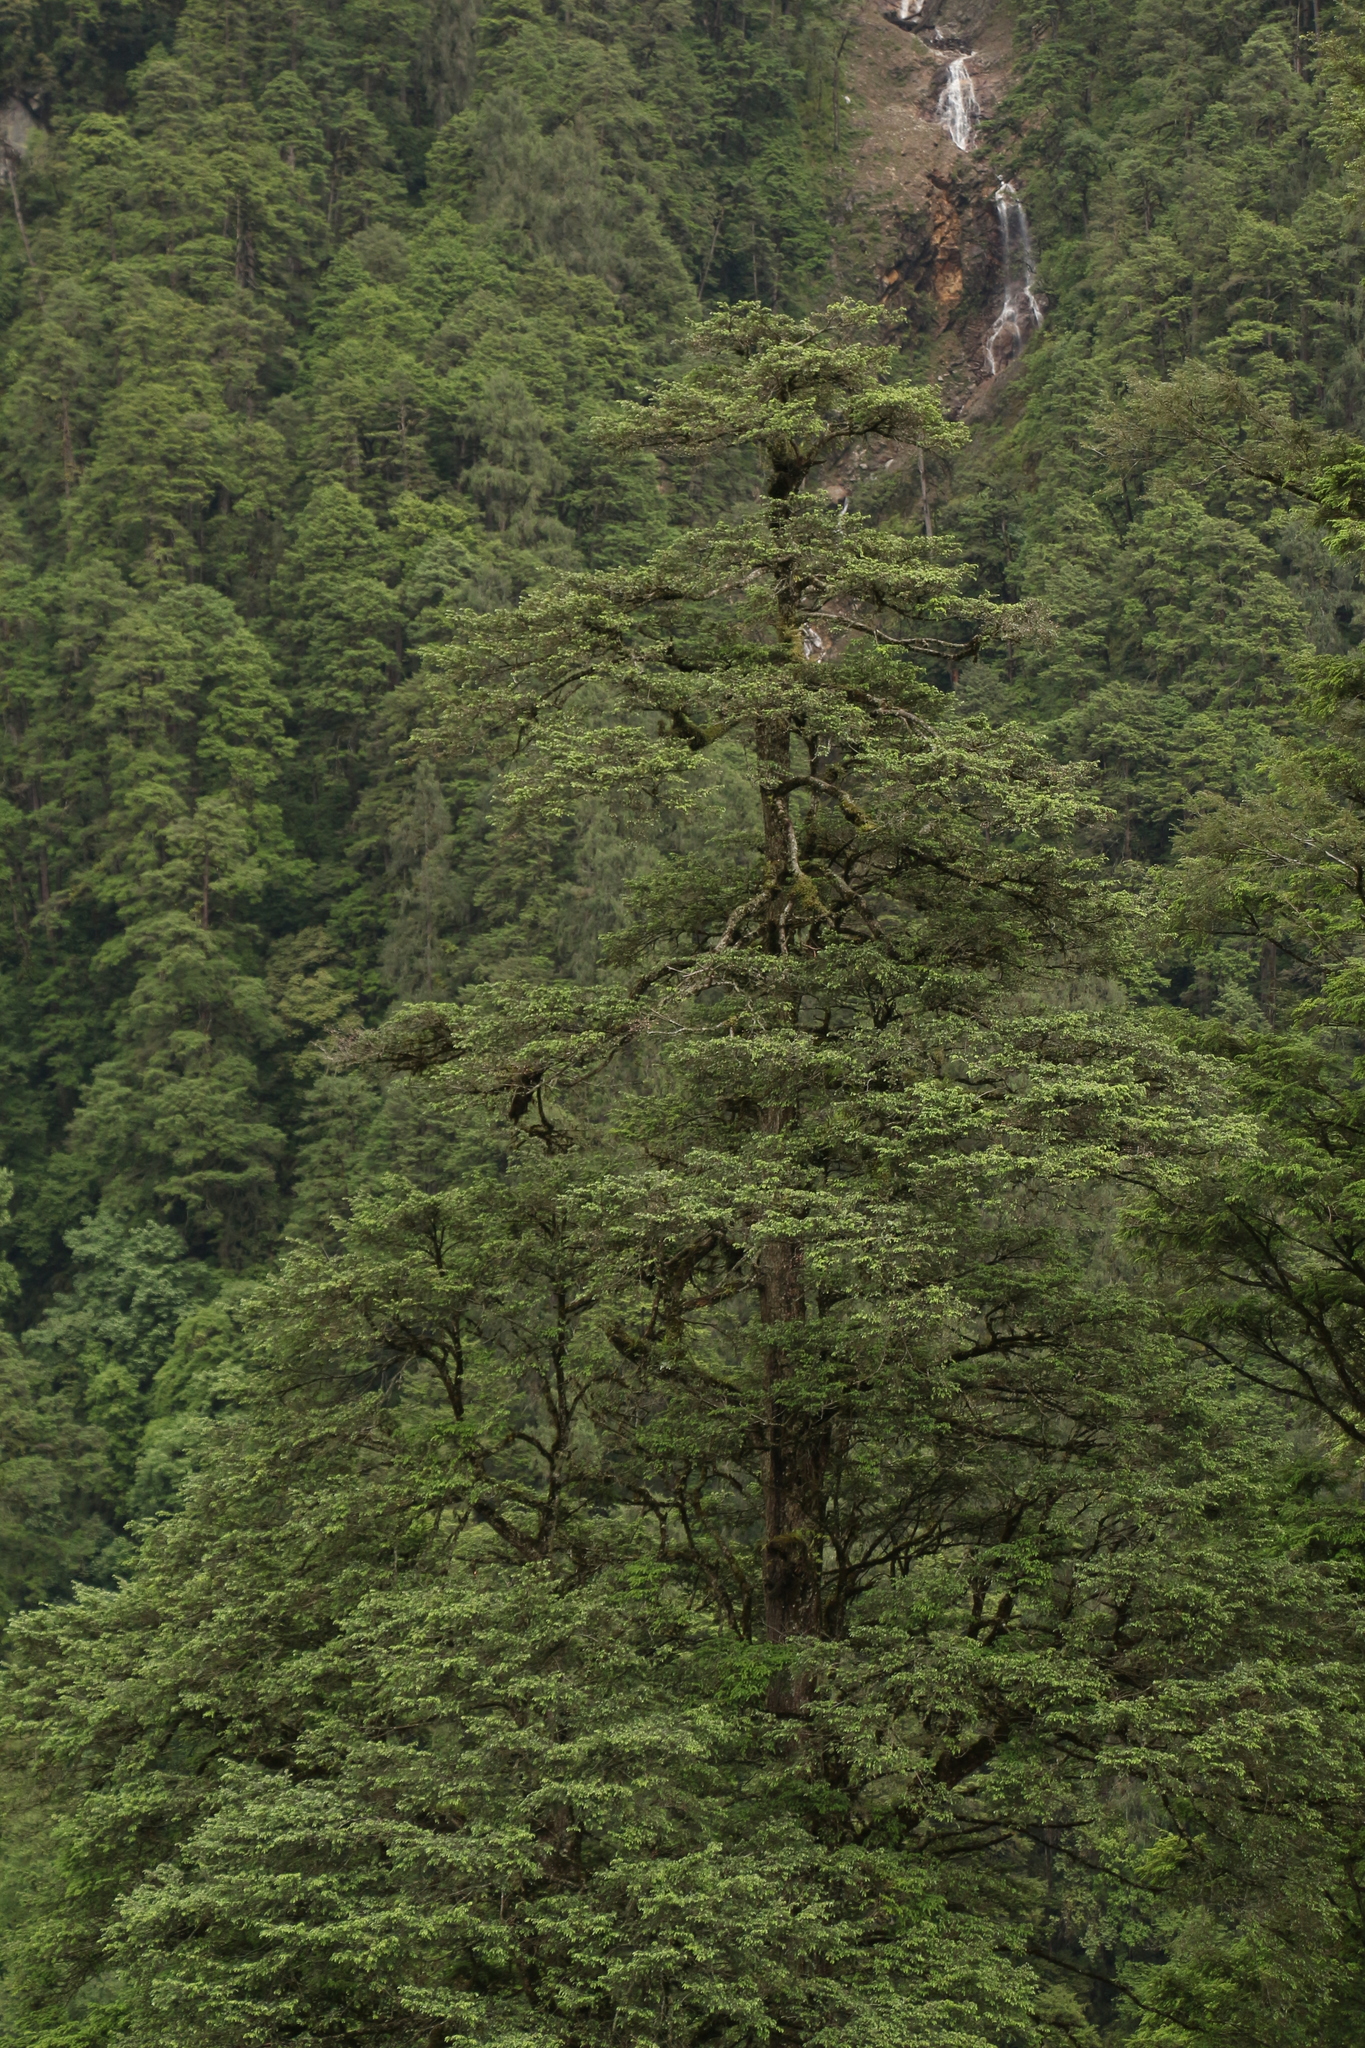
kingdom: Plantae
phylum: Tracheophyta
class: Pinopsida
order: Pinales
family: Pinaceae
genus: Tsuga
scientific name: Tsuga dumosa
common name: Himalayan hemlock
